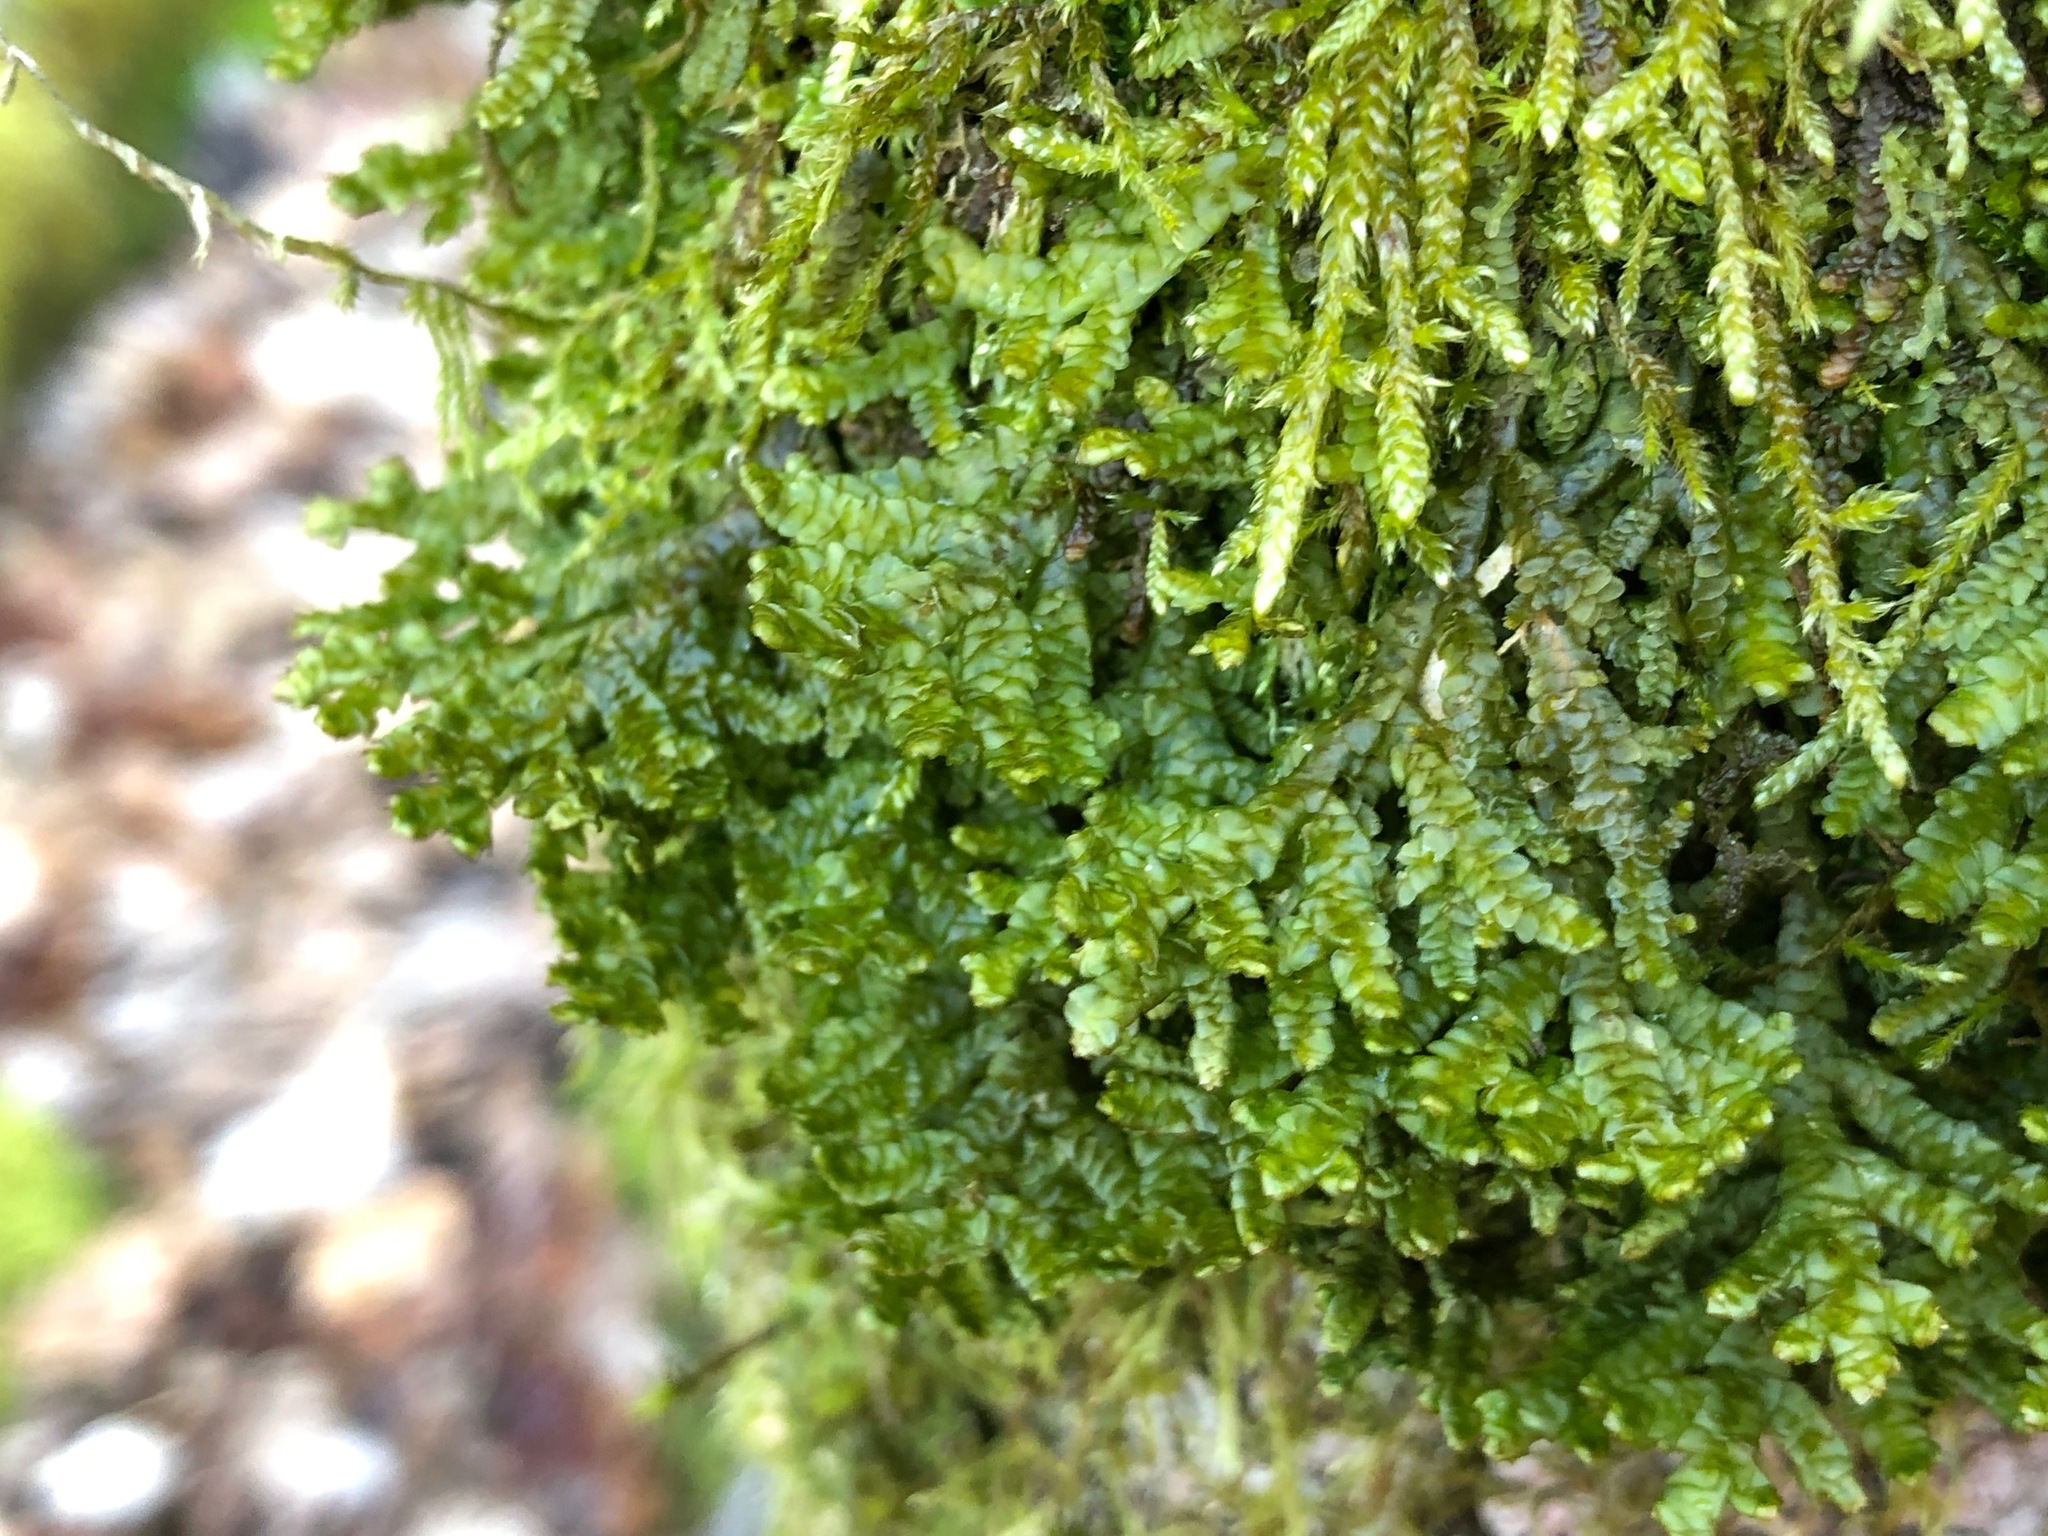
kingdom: Plantae
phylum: Marchantiophyta
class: Jungermanniopsida
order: Porellales
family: Porellaceae
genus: Porella
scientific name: Porella platyphylla
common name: Wall scalewort
